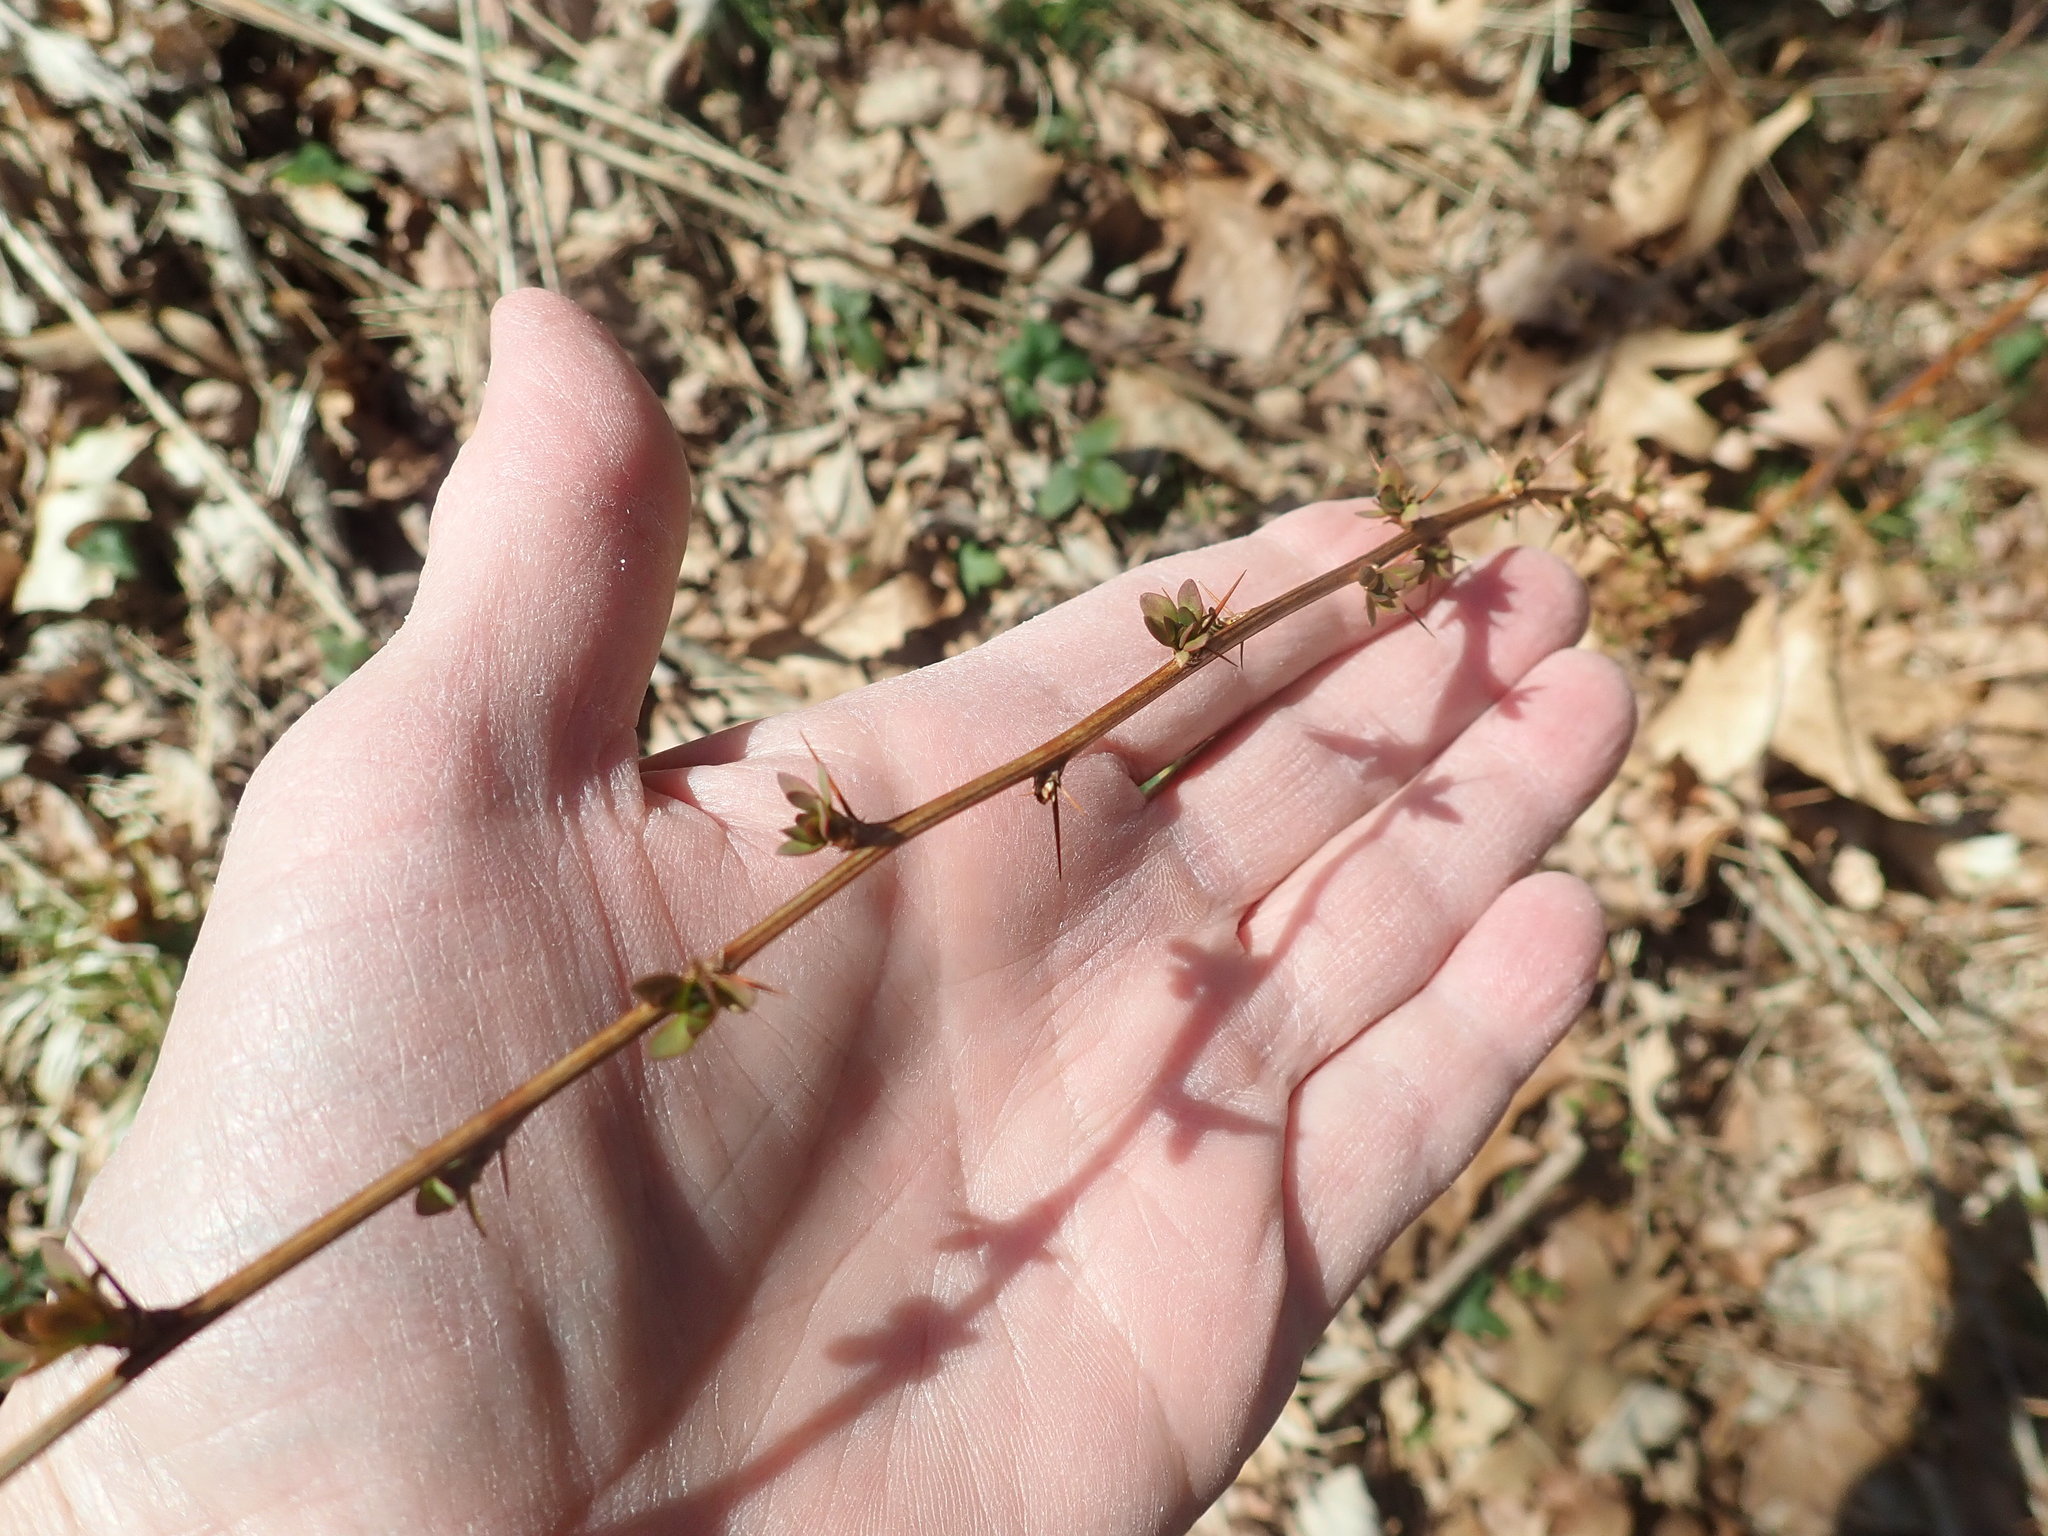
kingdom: Plantae
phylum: Tracheophyta
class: Magnoliopsida
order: Ranunculales
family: Berberidaceae
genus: Berberis
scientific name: Berberis thunbergii
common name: Japanese barberry
